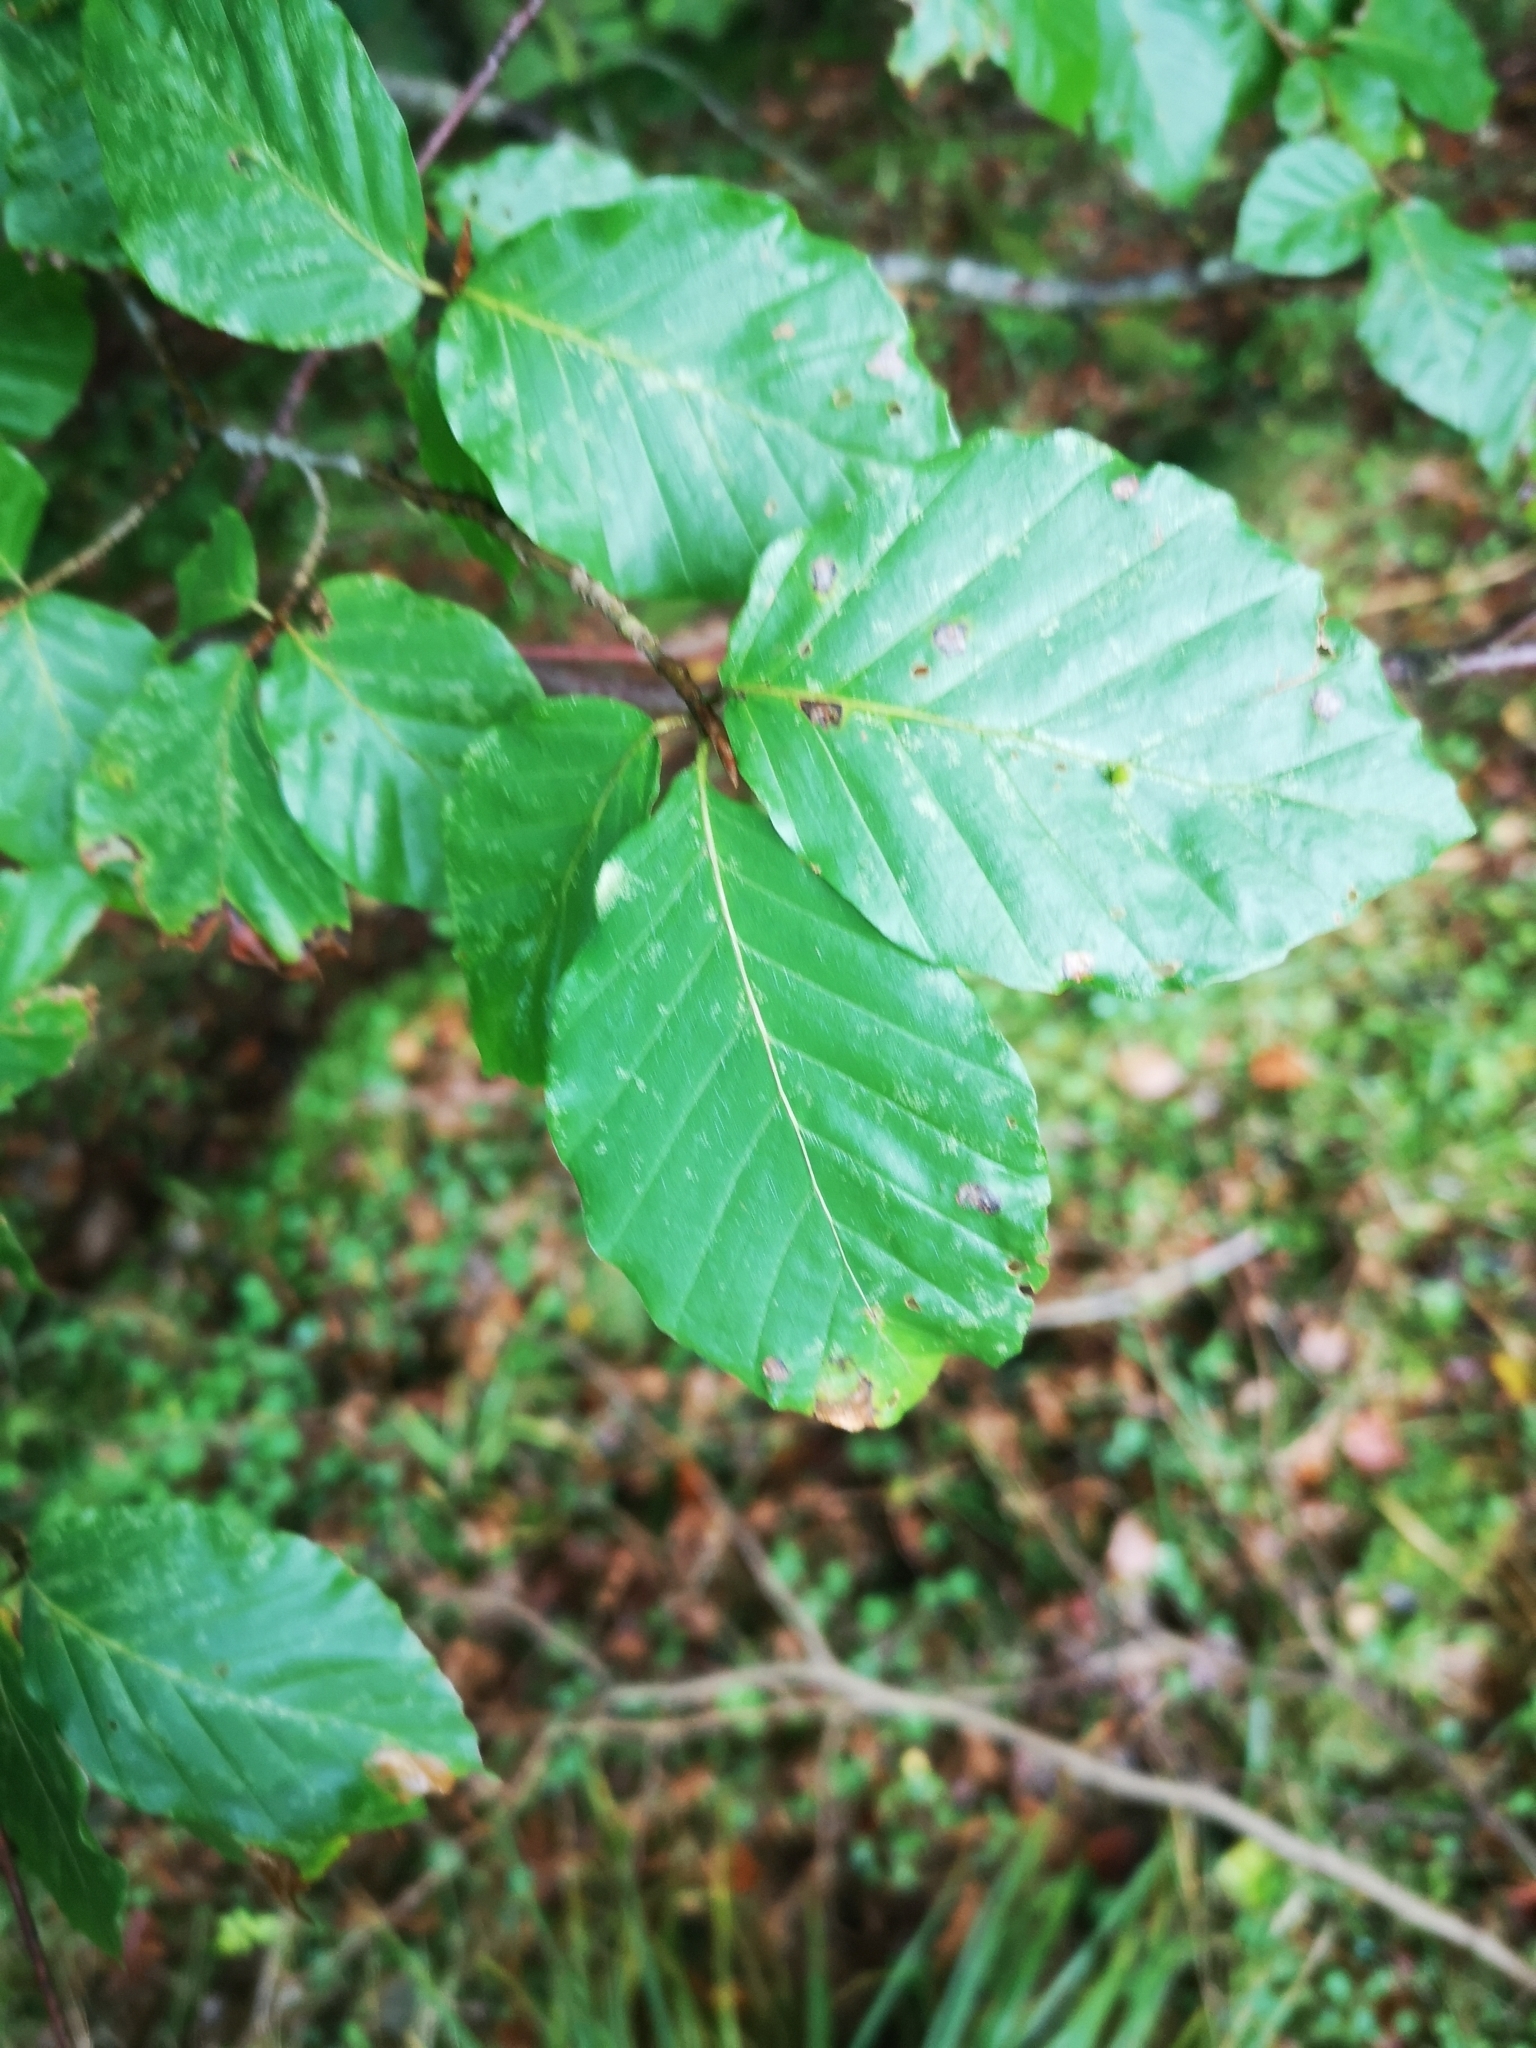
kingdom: Plantae
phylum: Tracheophyta
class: Magnoliopsida
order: Fagales
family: Fagaceae
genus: Fagus
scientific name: Fagus sylvatica
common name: Beech
